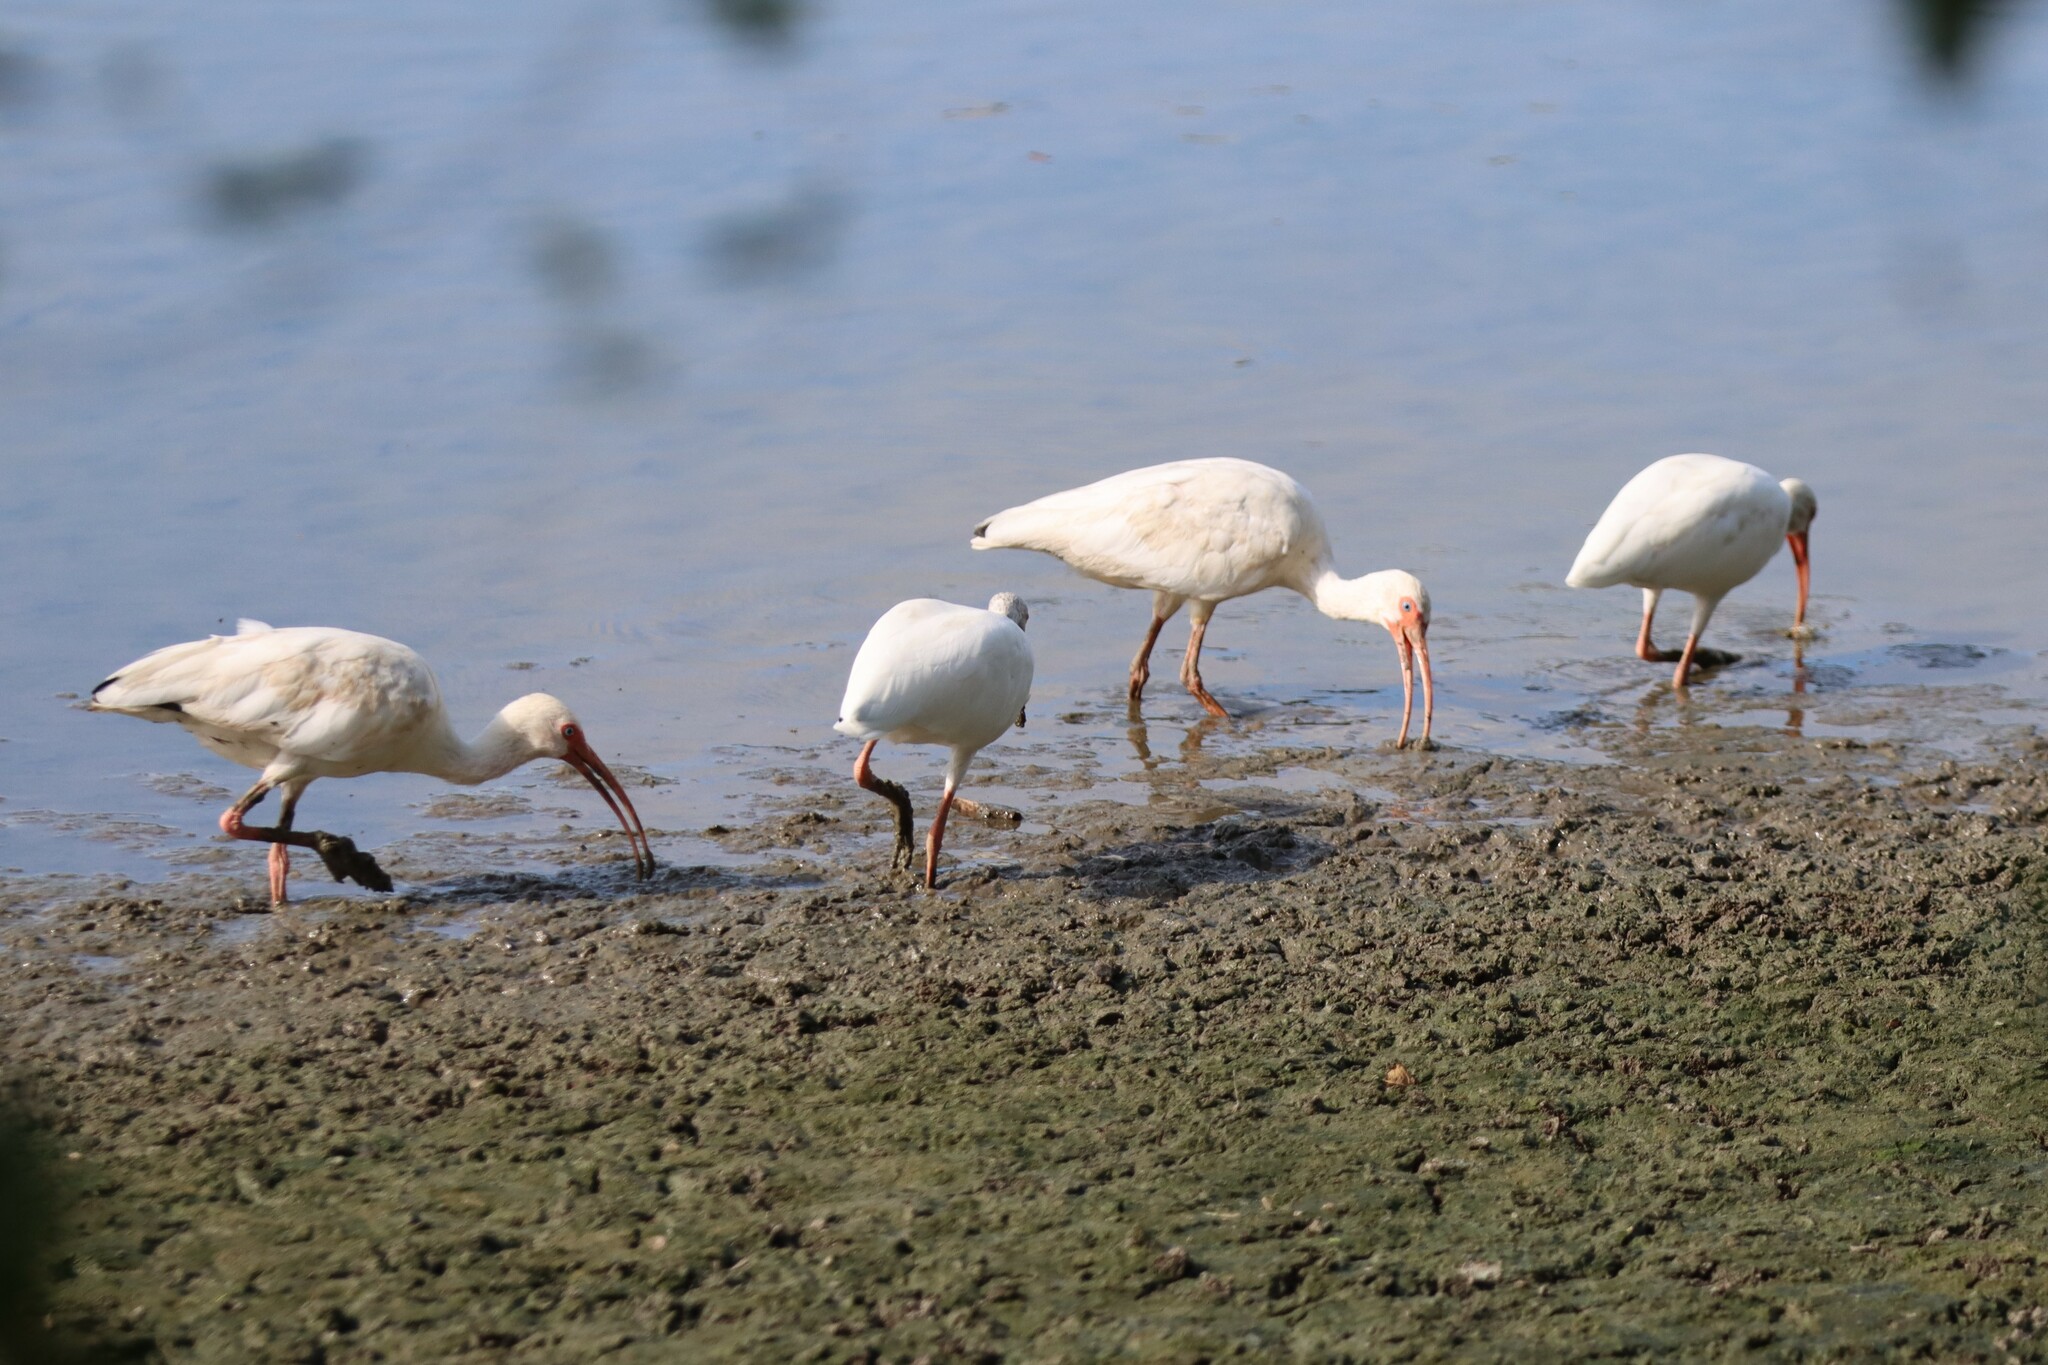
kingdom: Animalia
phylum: Chordata
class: Aves
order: Pelecaniformes
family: Threskiornithidae
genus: Eudocimus
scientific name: Eudocimus albus
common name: White ibis
